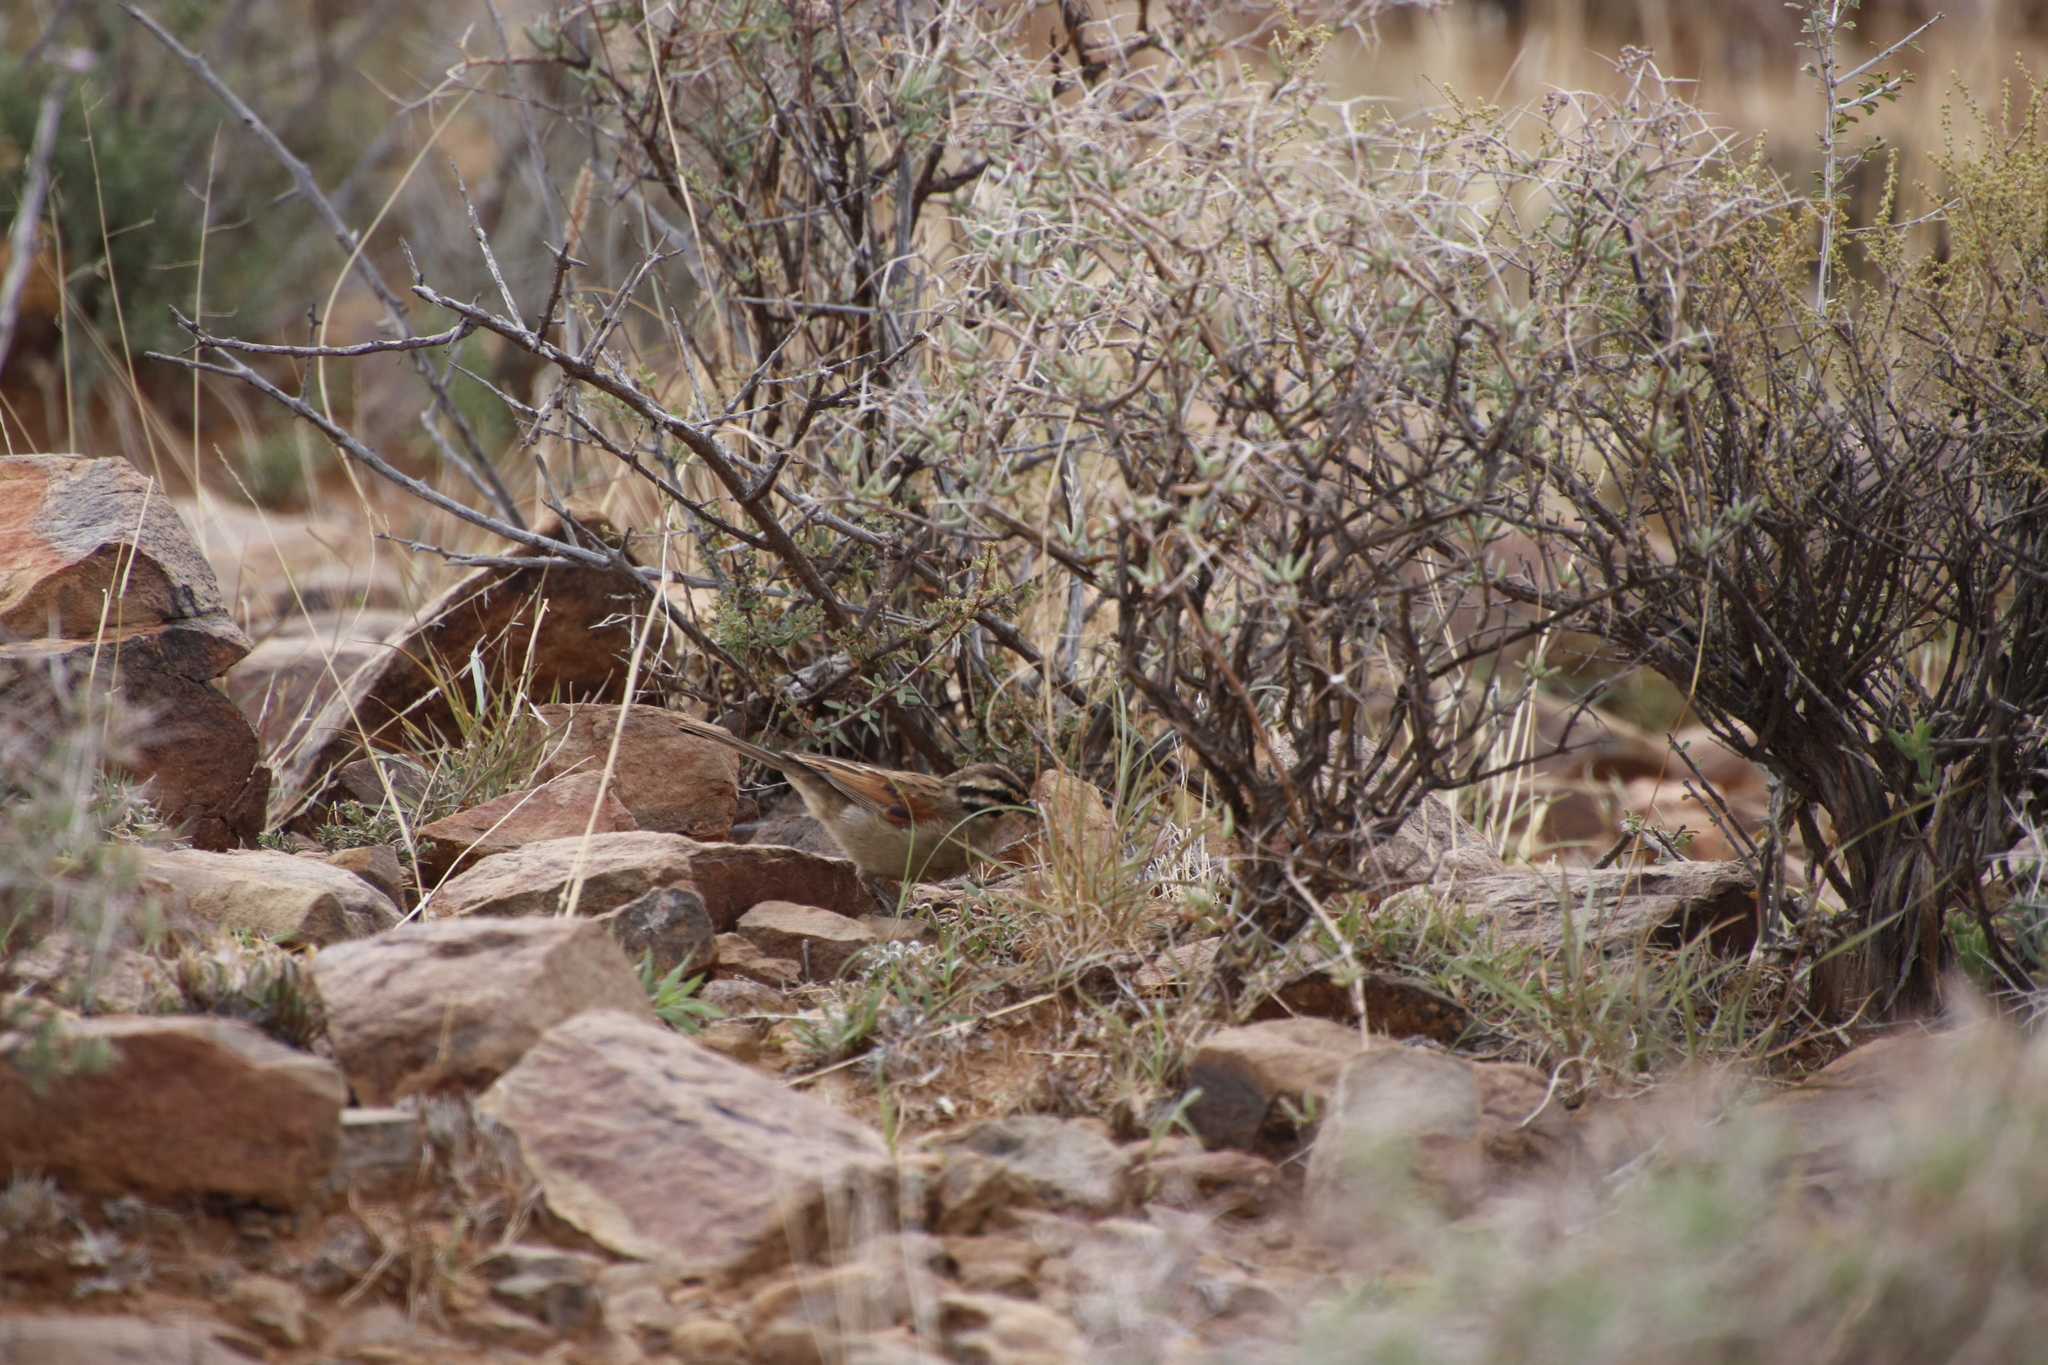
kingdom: Animalia
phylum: Chordata
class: Aves
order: Passeriformes
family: Emberizidae
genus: Emberiza
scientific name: Emberiza capensis
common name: Cape bunting
